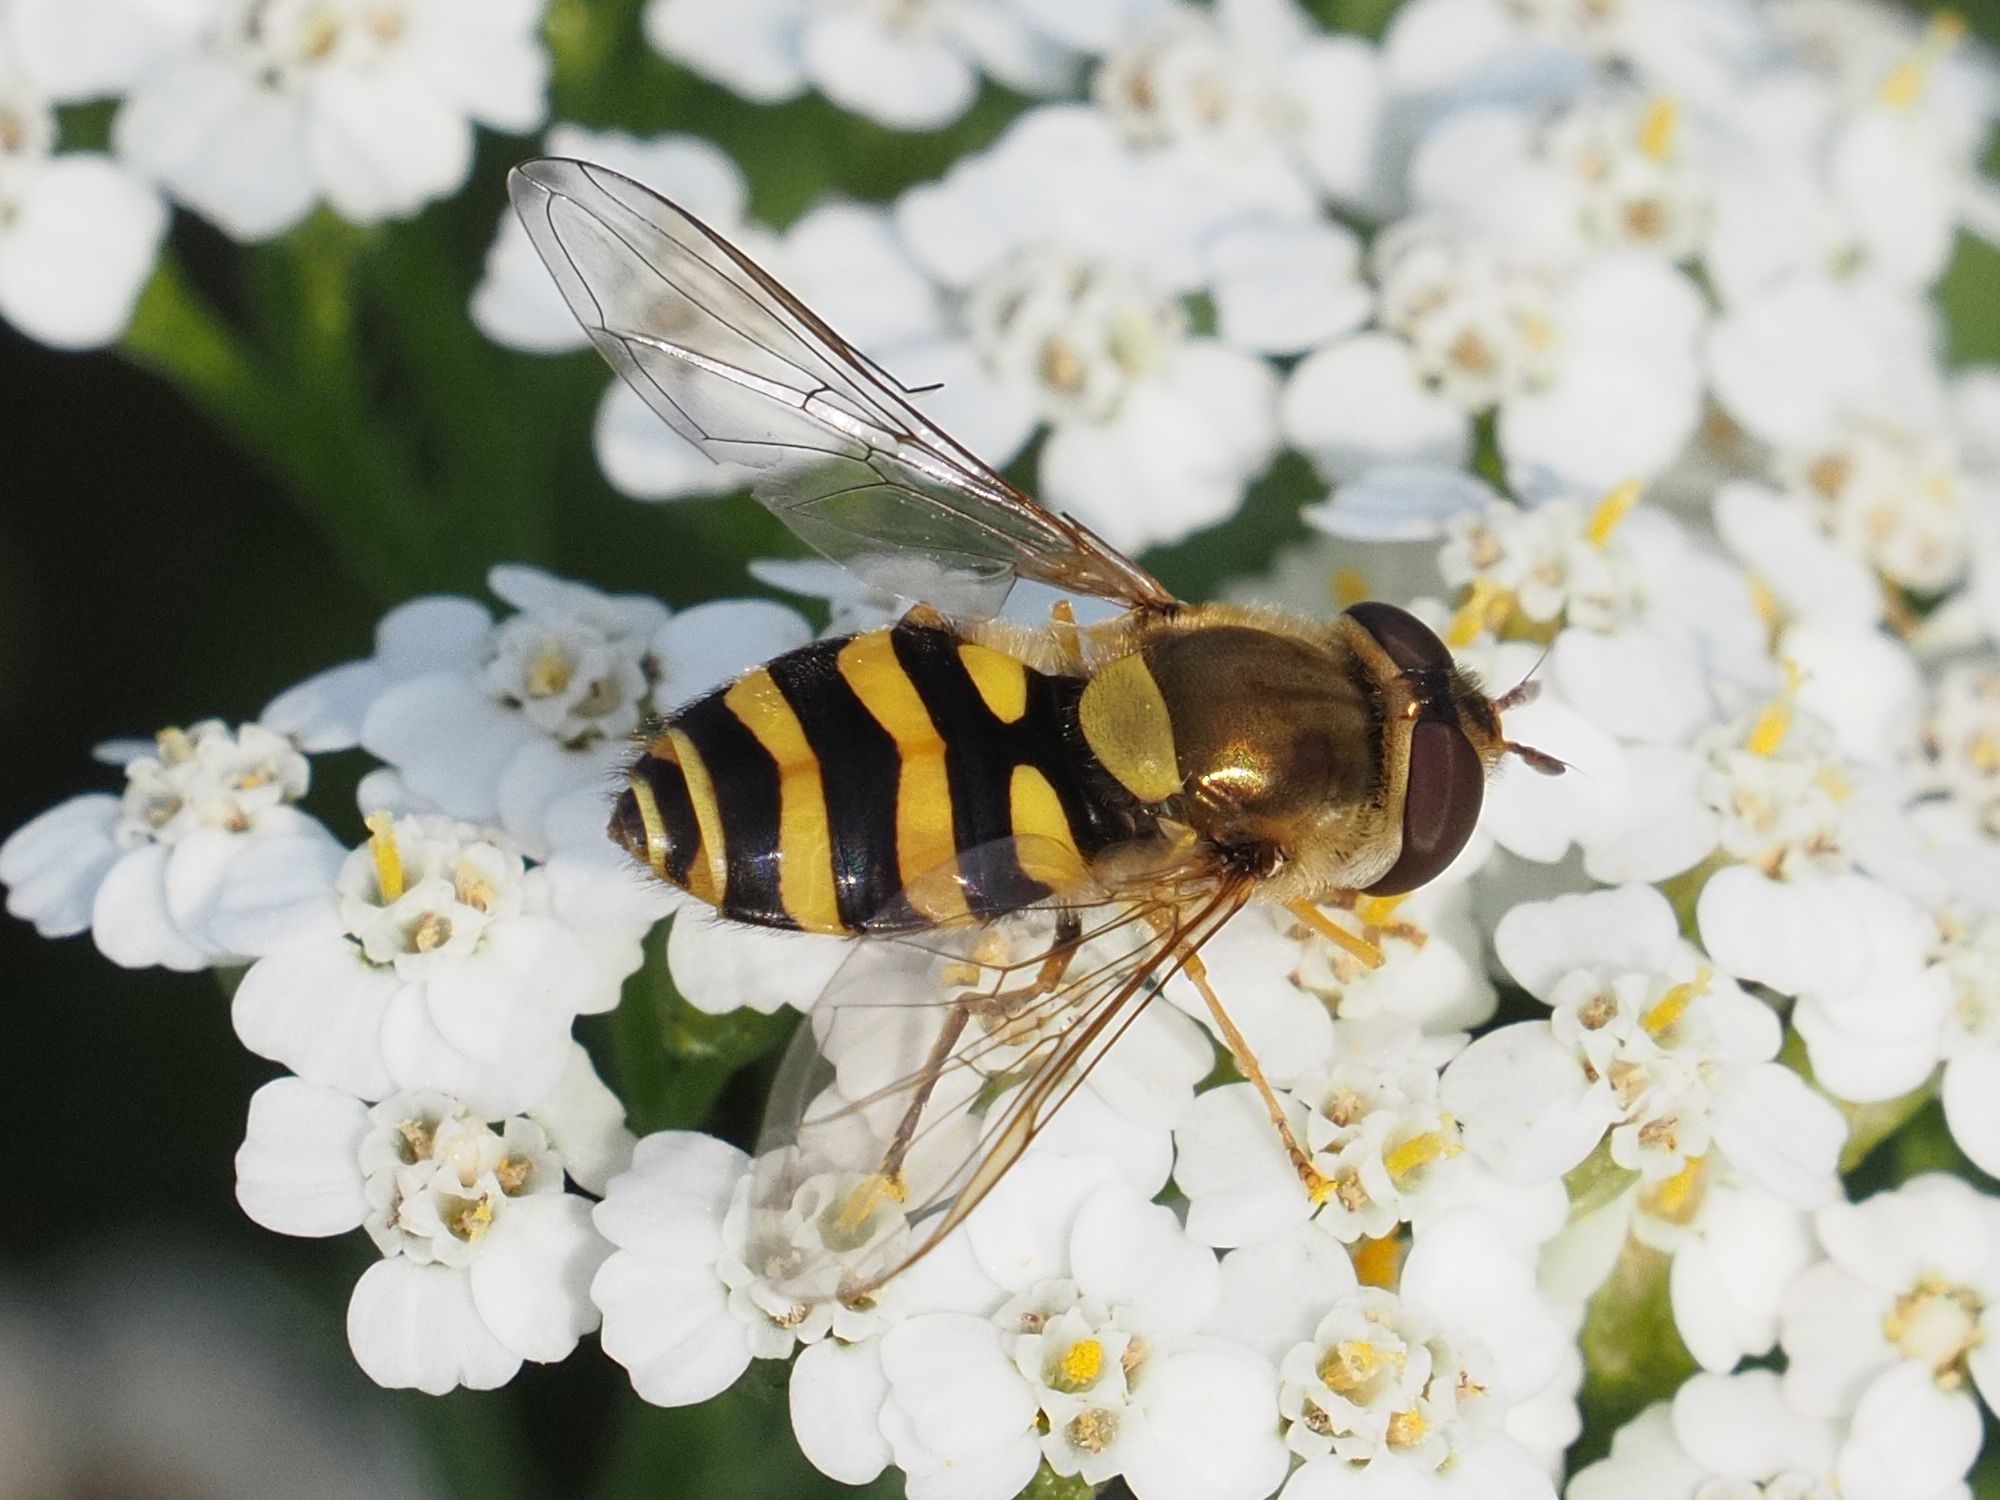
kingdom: Animalia
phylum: Arthropoda
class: Insecta
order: Diptera
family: Syrphidae
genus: Syrphus
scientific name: Syrphus
